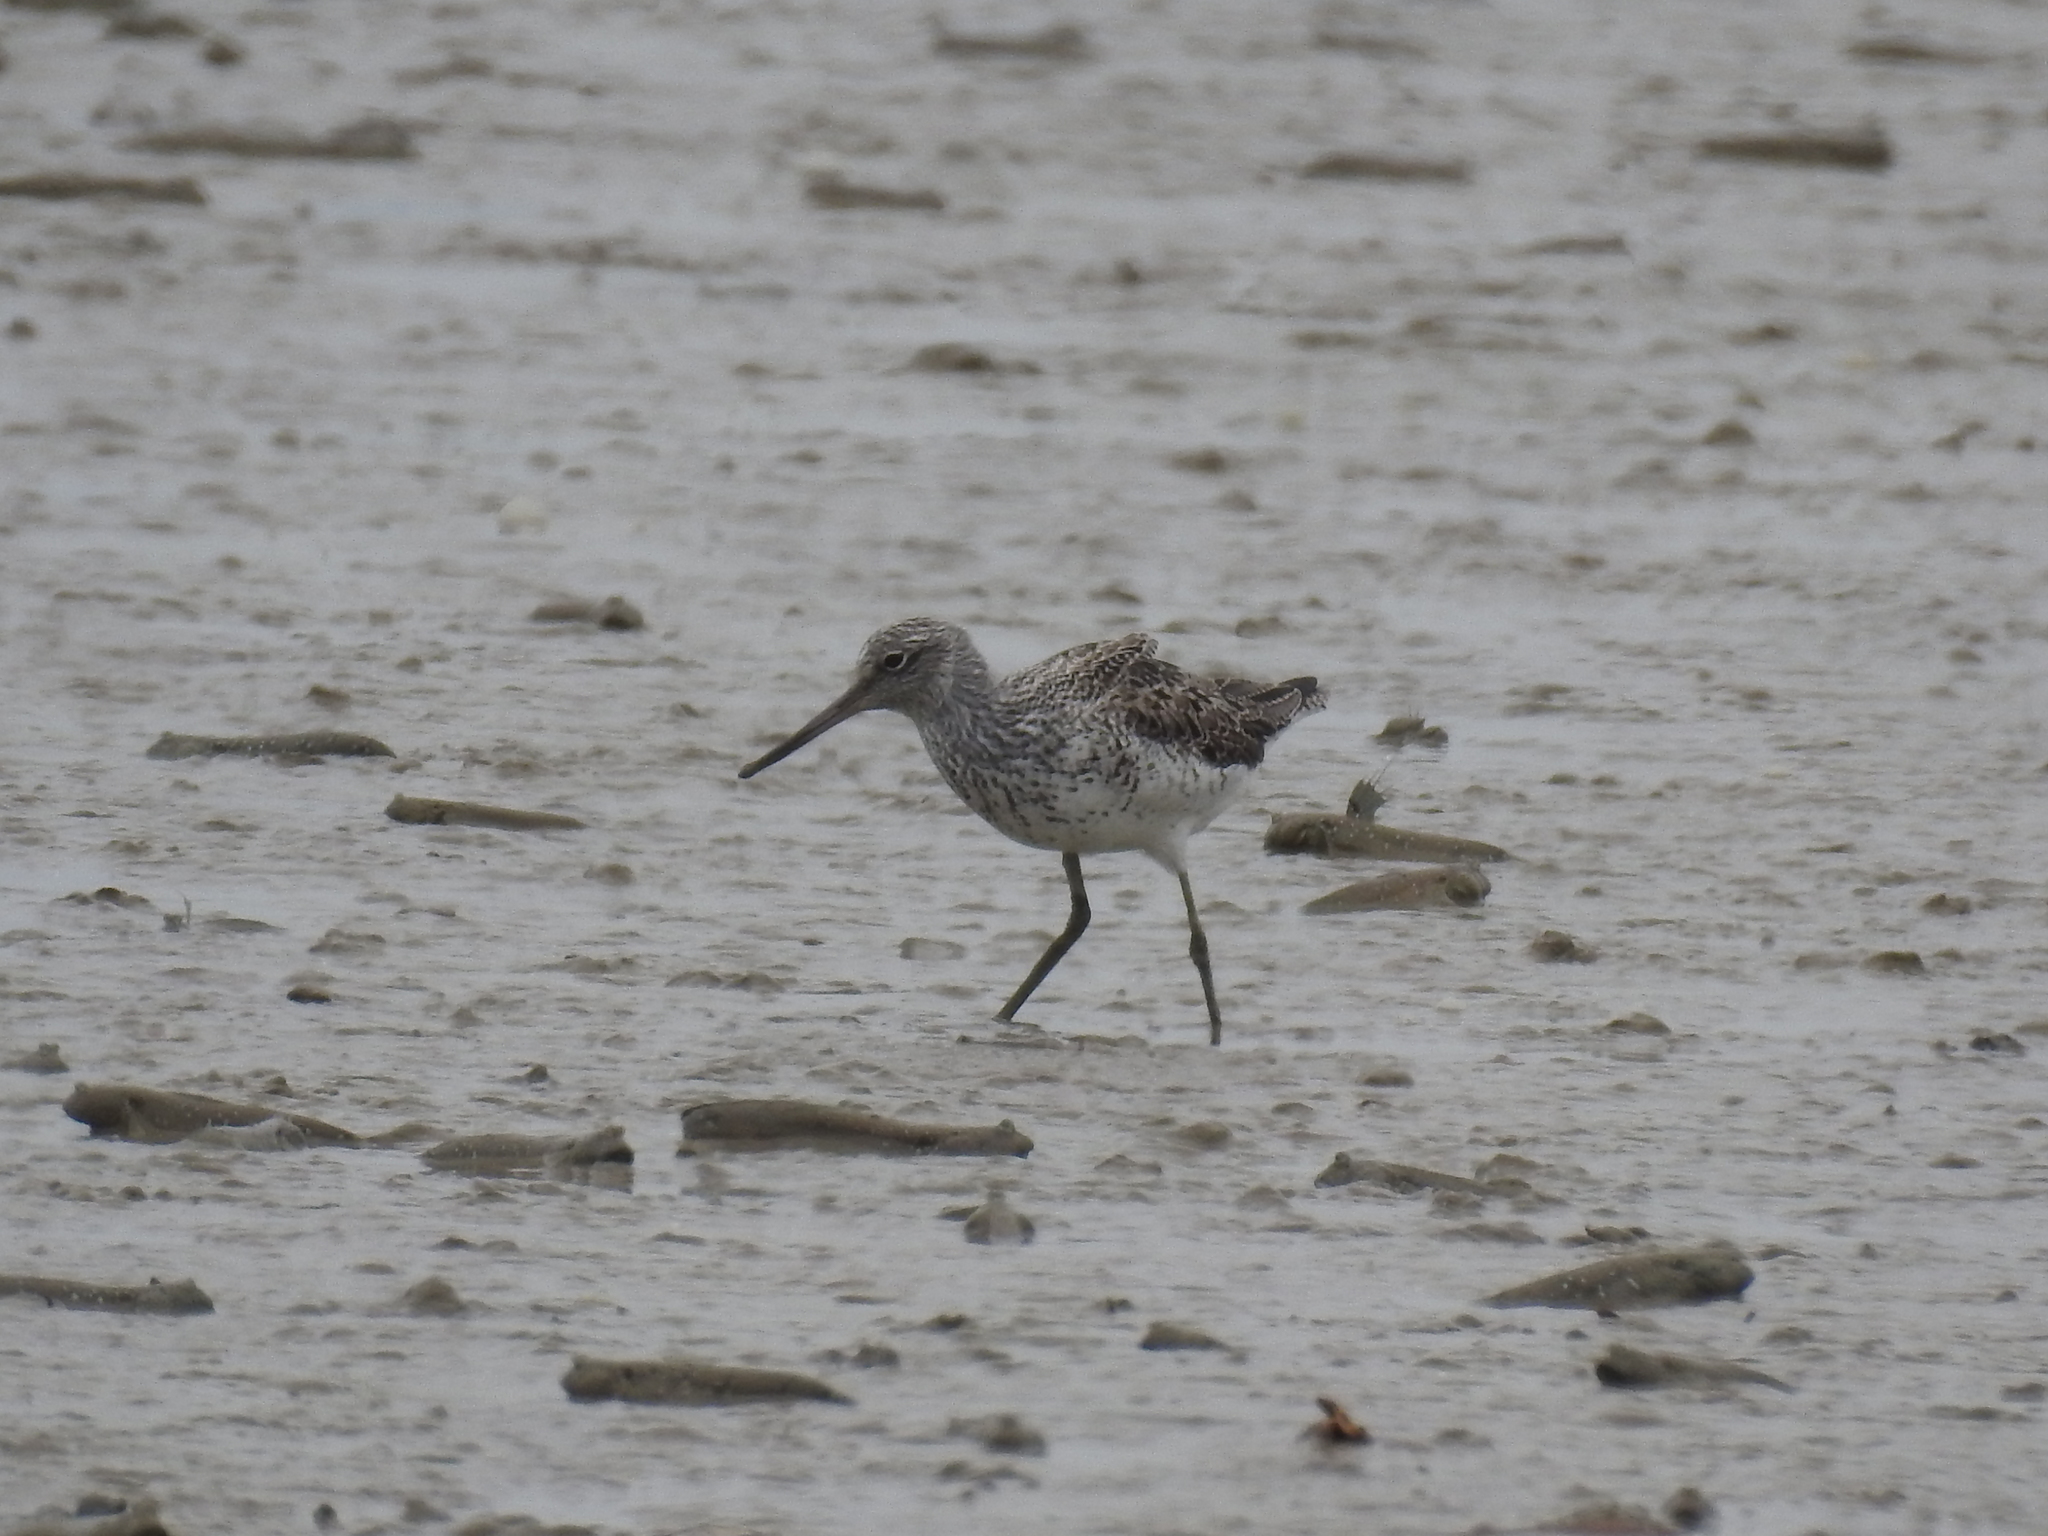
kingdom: Animalia
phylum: Chordata
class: Aves
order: Charadriiformes
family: Scolopacidae
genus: Tringa
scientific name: Tringa nebularia
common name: Common greenshank
